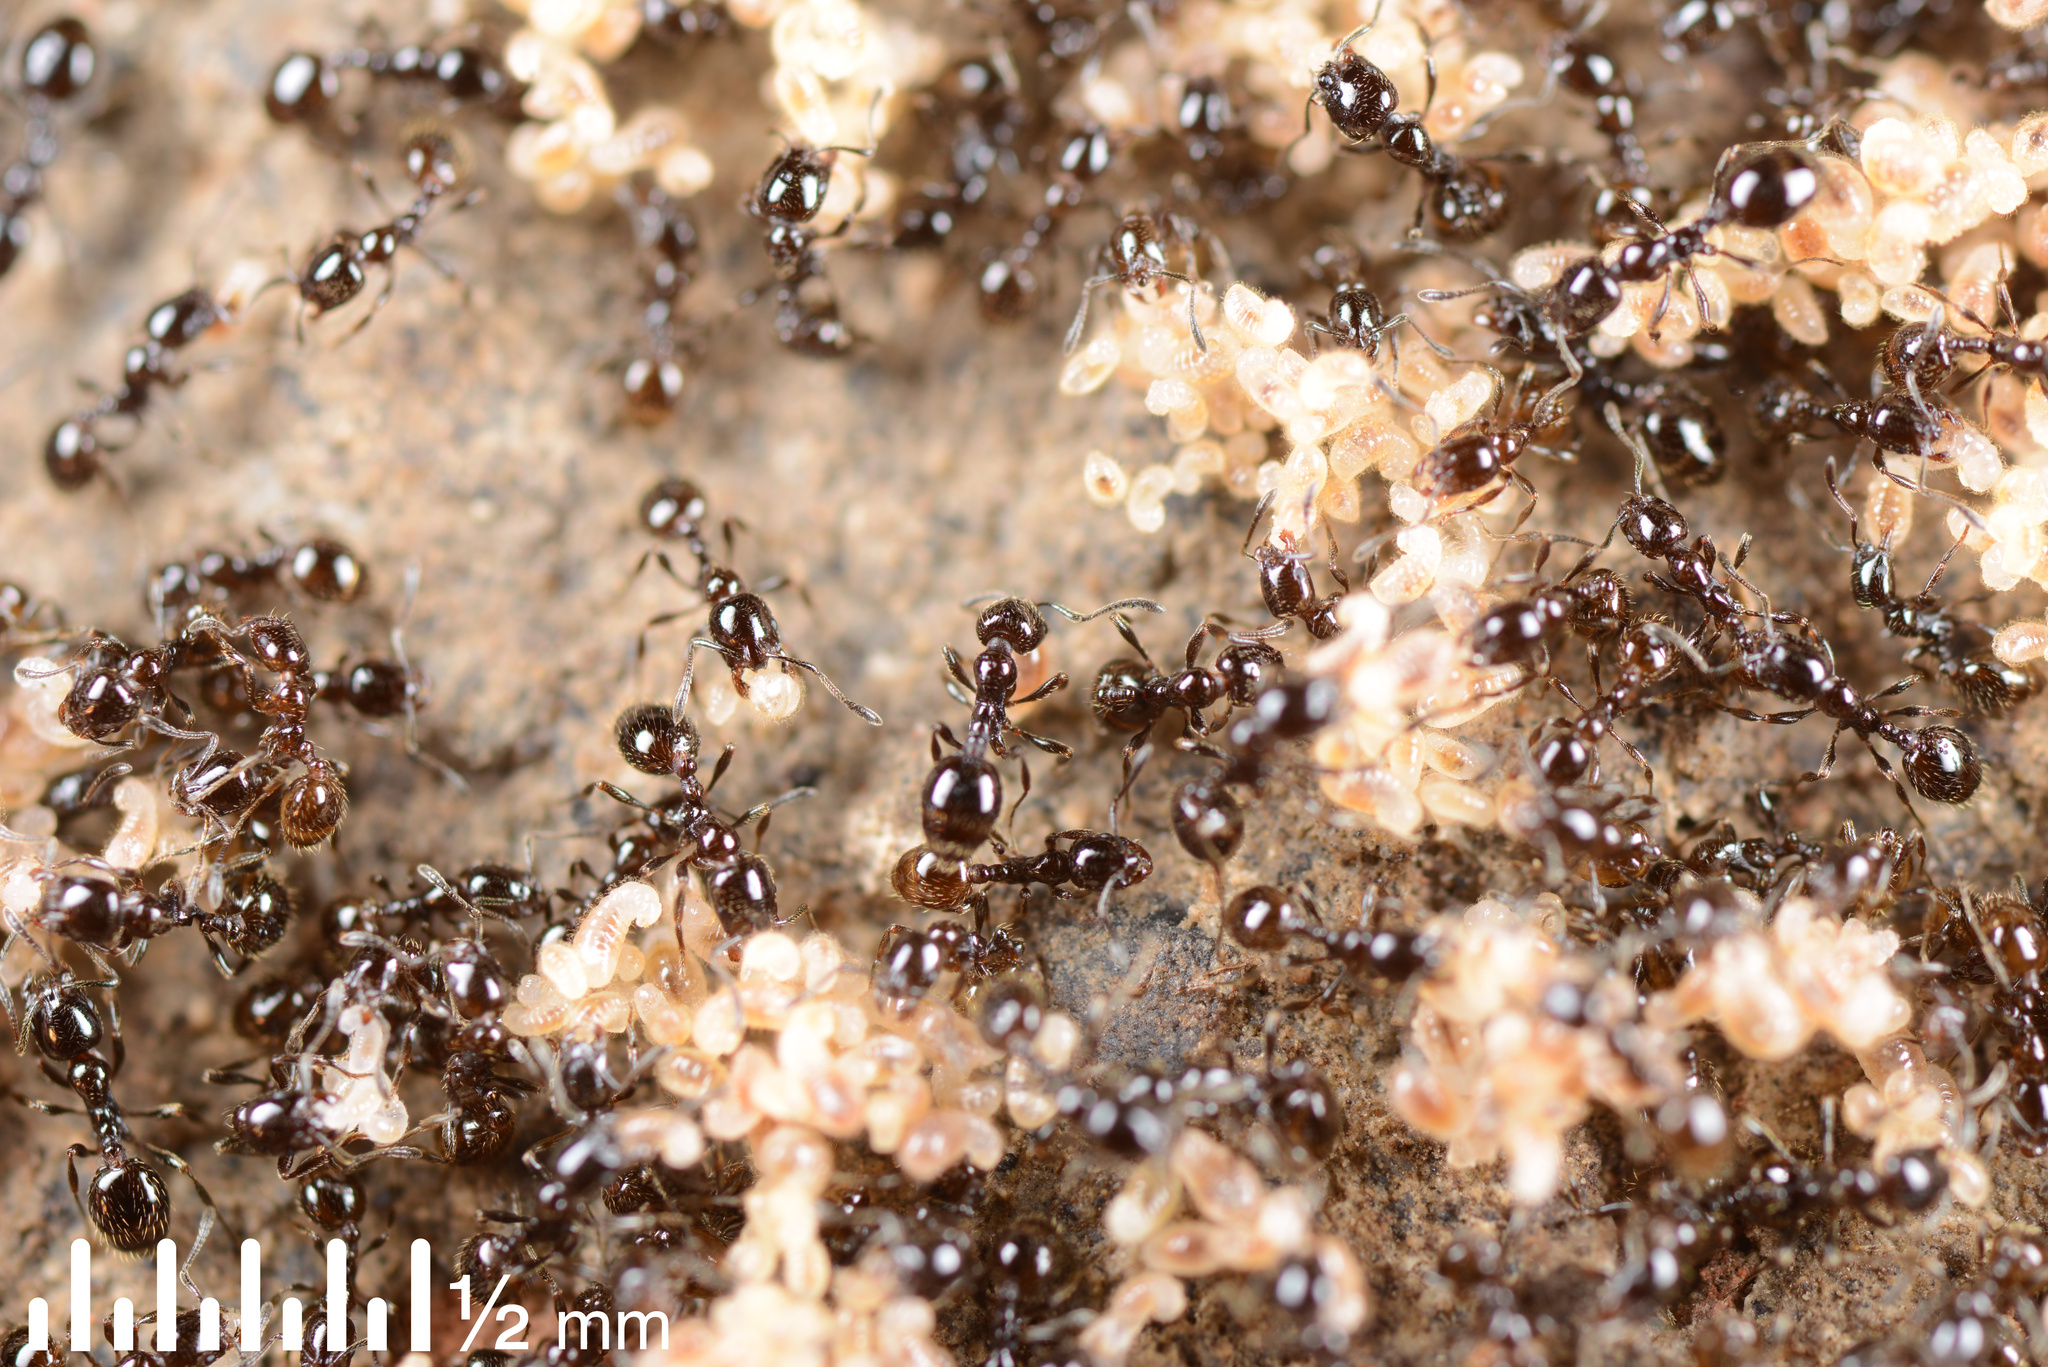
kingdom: Animalia
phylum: Arthropoda
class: Insecta
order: Hymenoptera
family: Formicidae
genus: Monomorium
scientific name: Monomorium antarcticum
